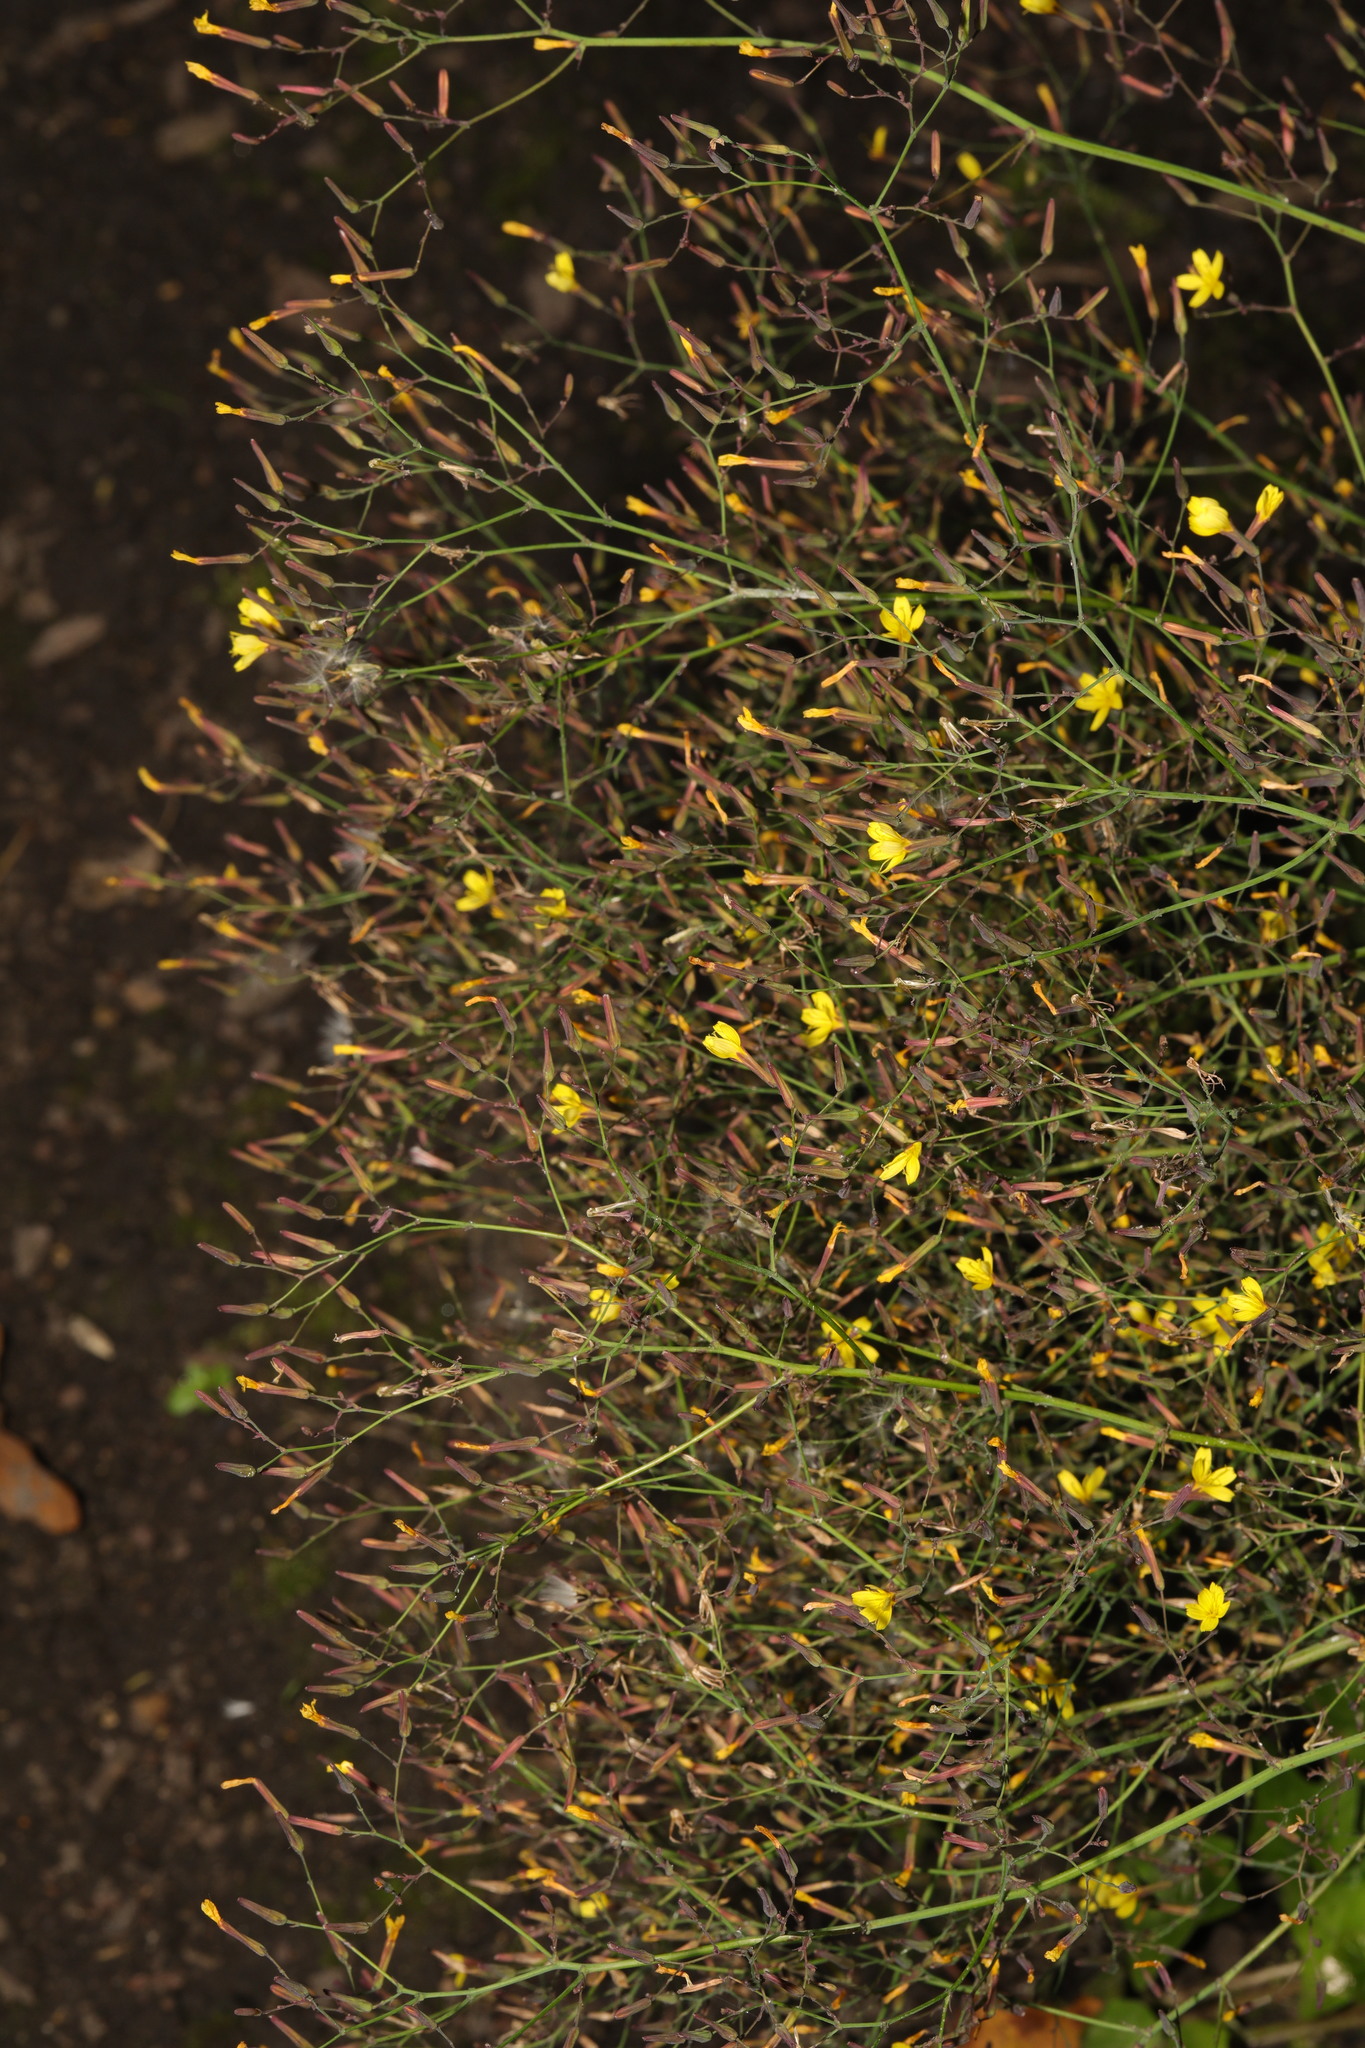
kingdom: Plantae
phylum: Tracheophyta
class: Magnoliopsida
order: Asterales
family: Asteraceae
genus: Mycelis
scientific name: Mycelis muralis
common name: Wall lettuce
